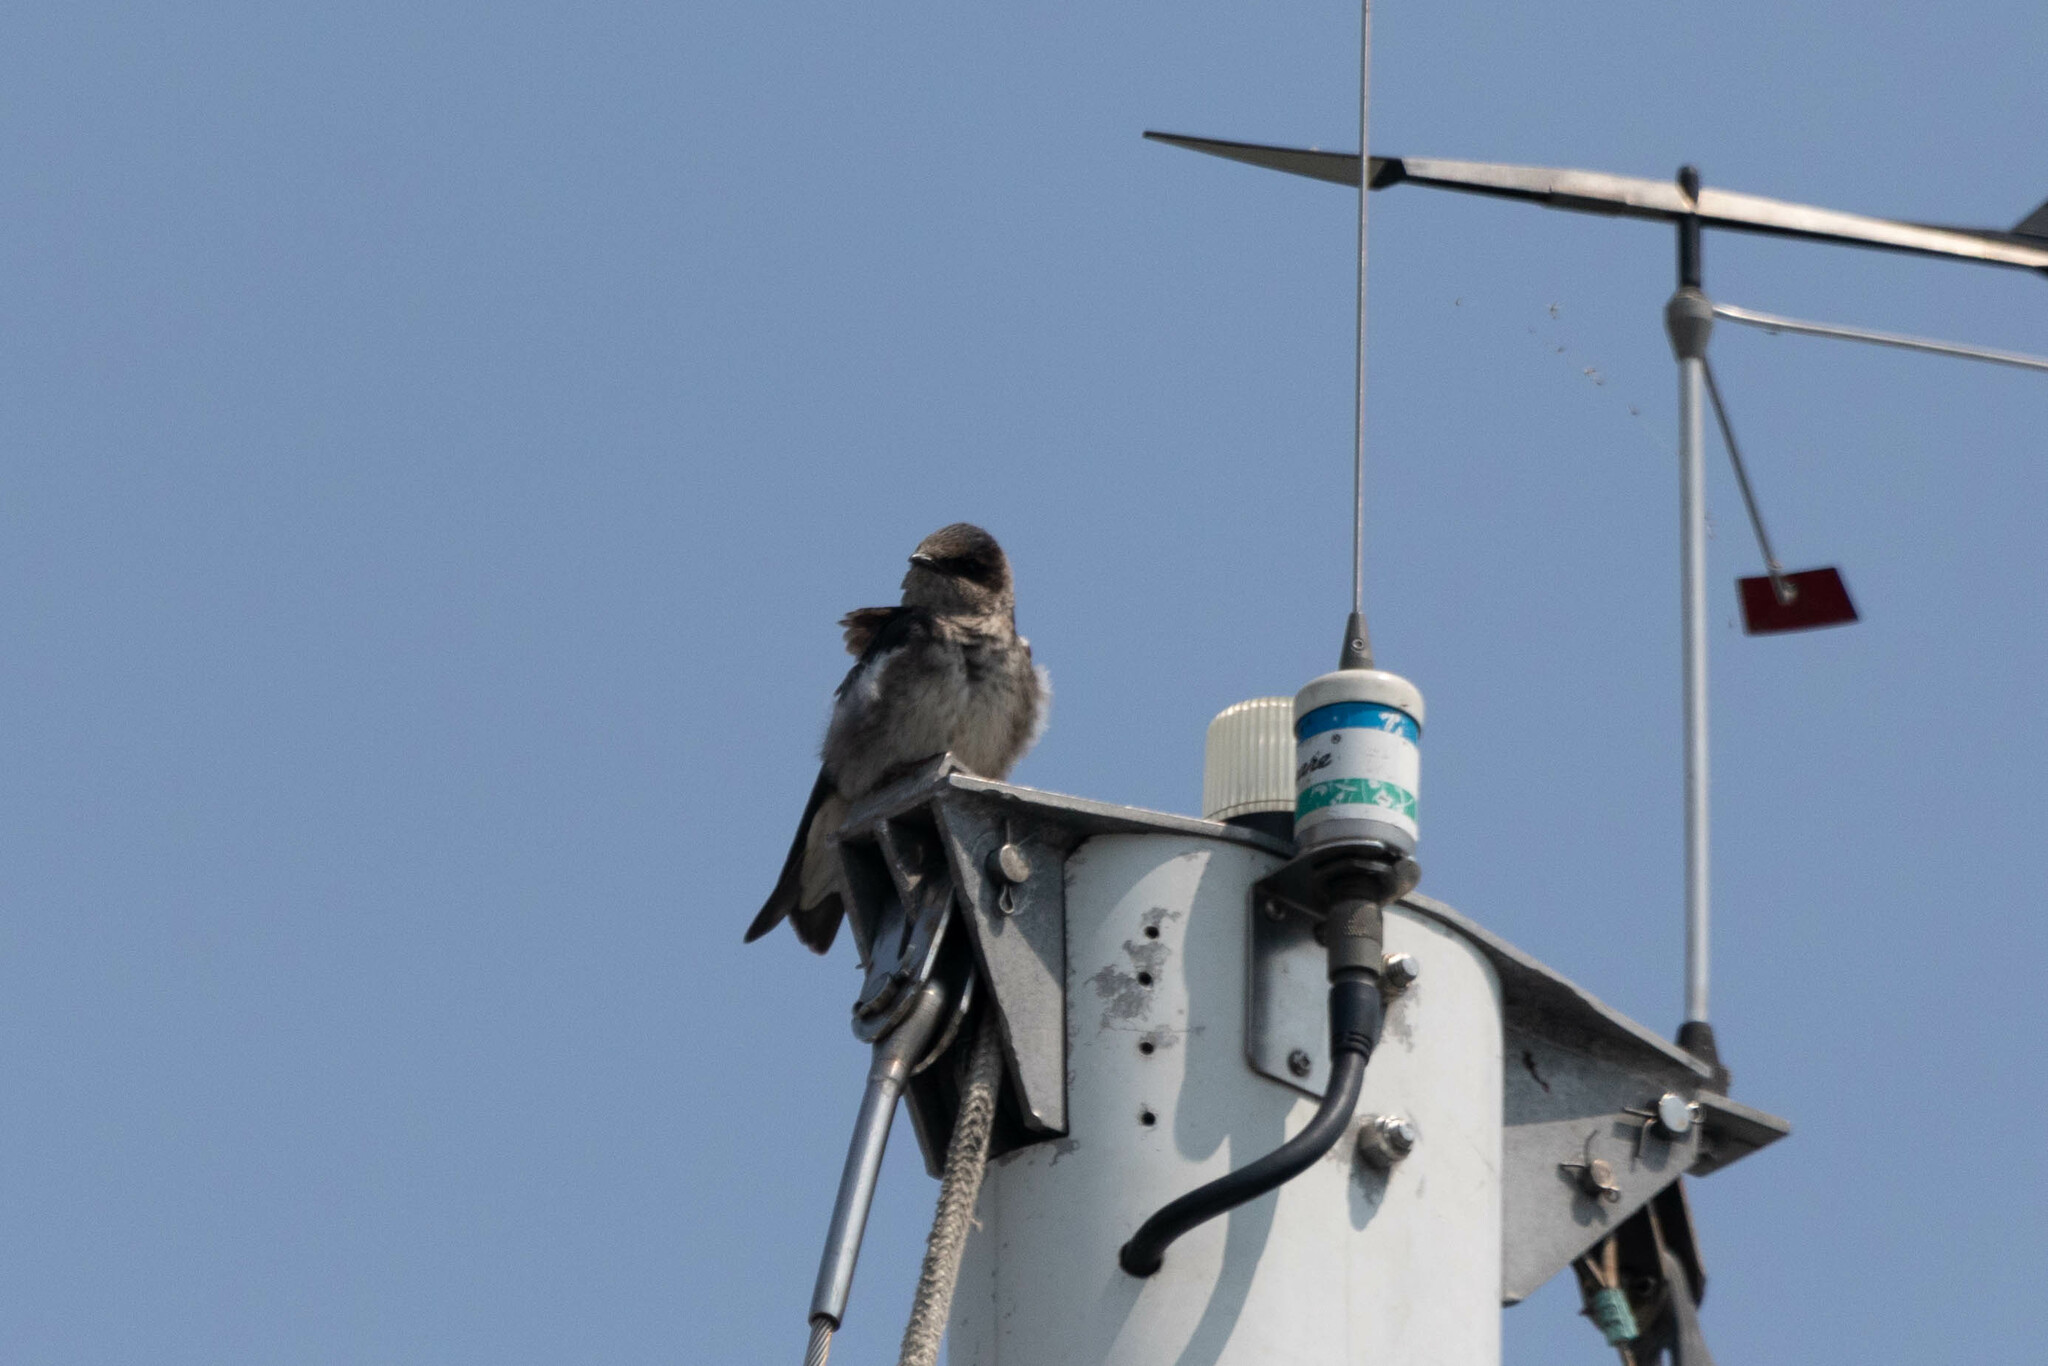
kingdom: Animalia
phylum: Chordata
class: Aves
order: Passeriformes
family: Hirundinidae
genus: Progne
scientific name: Progne subis
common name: Purple martin
